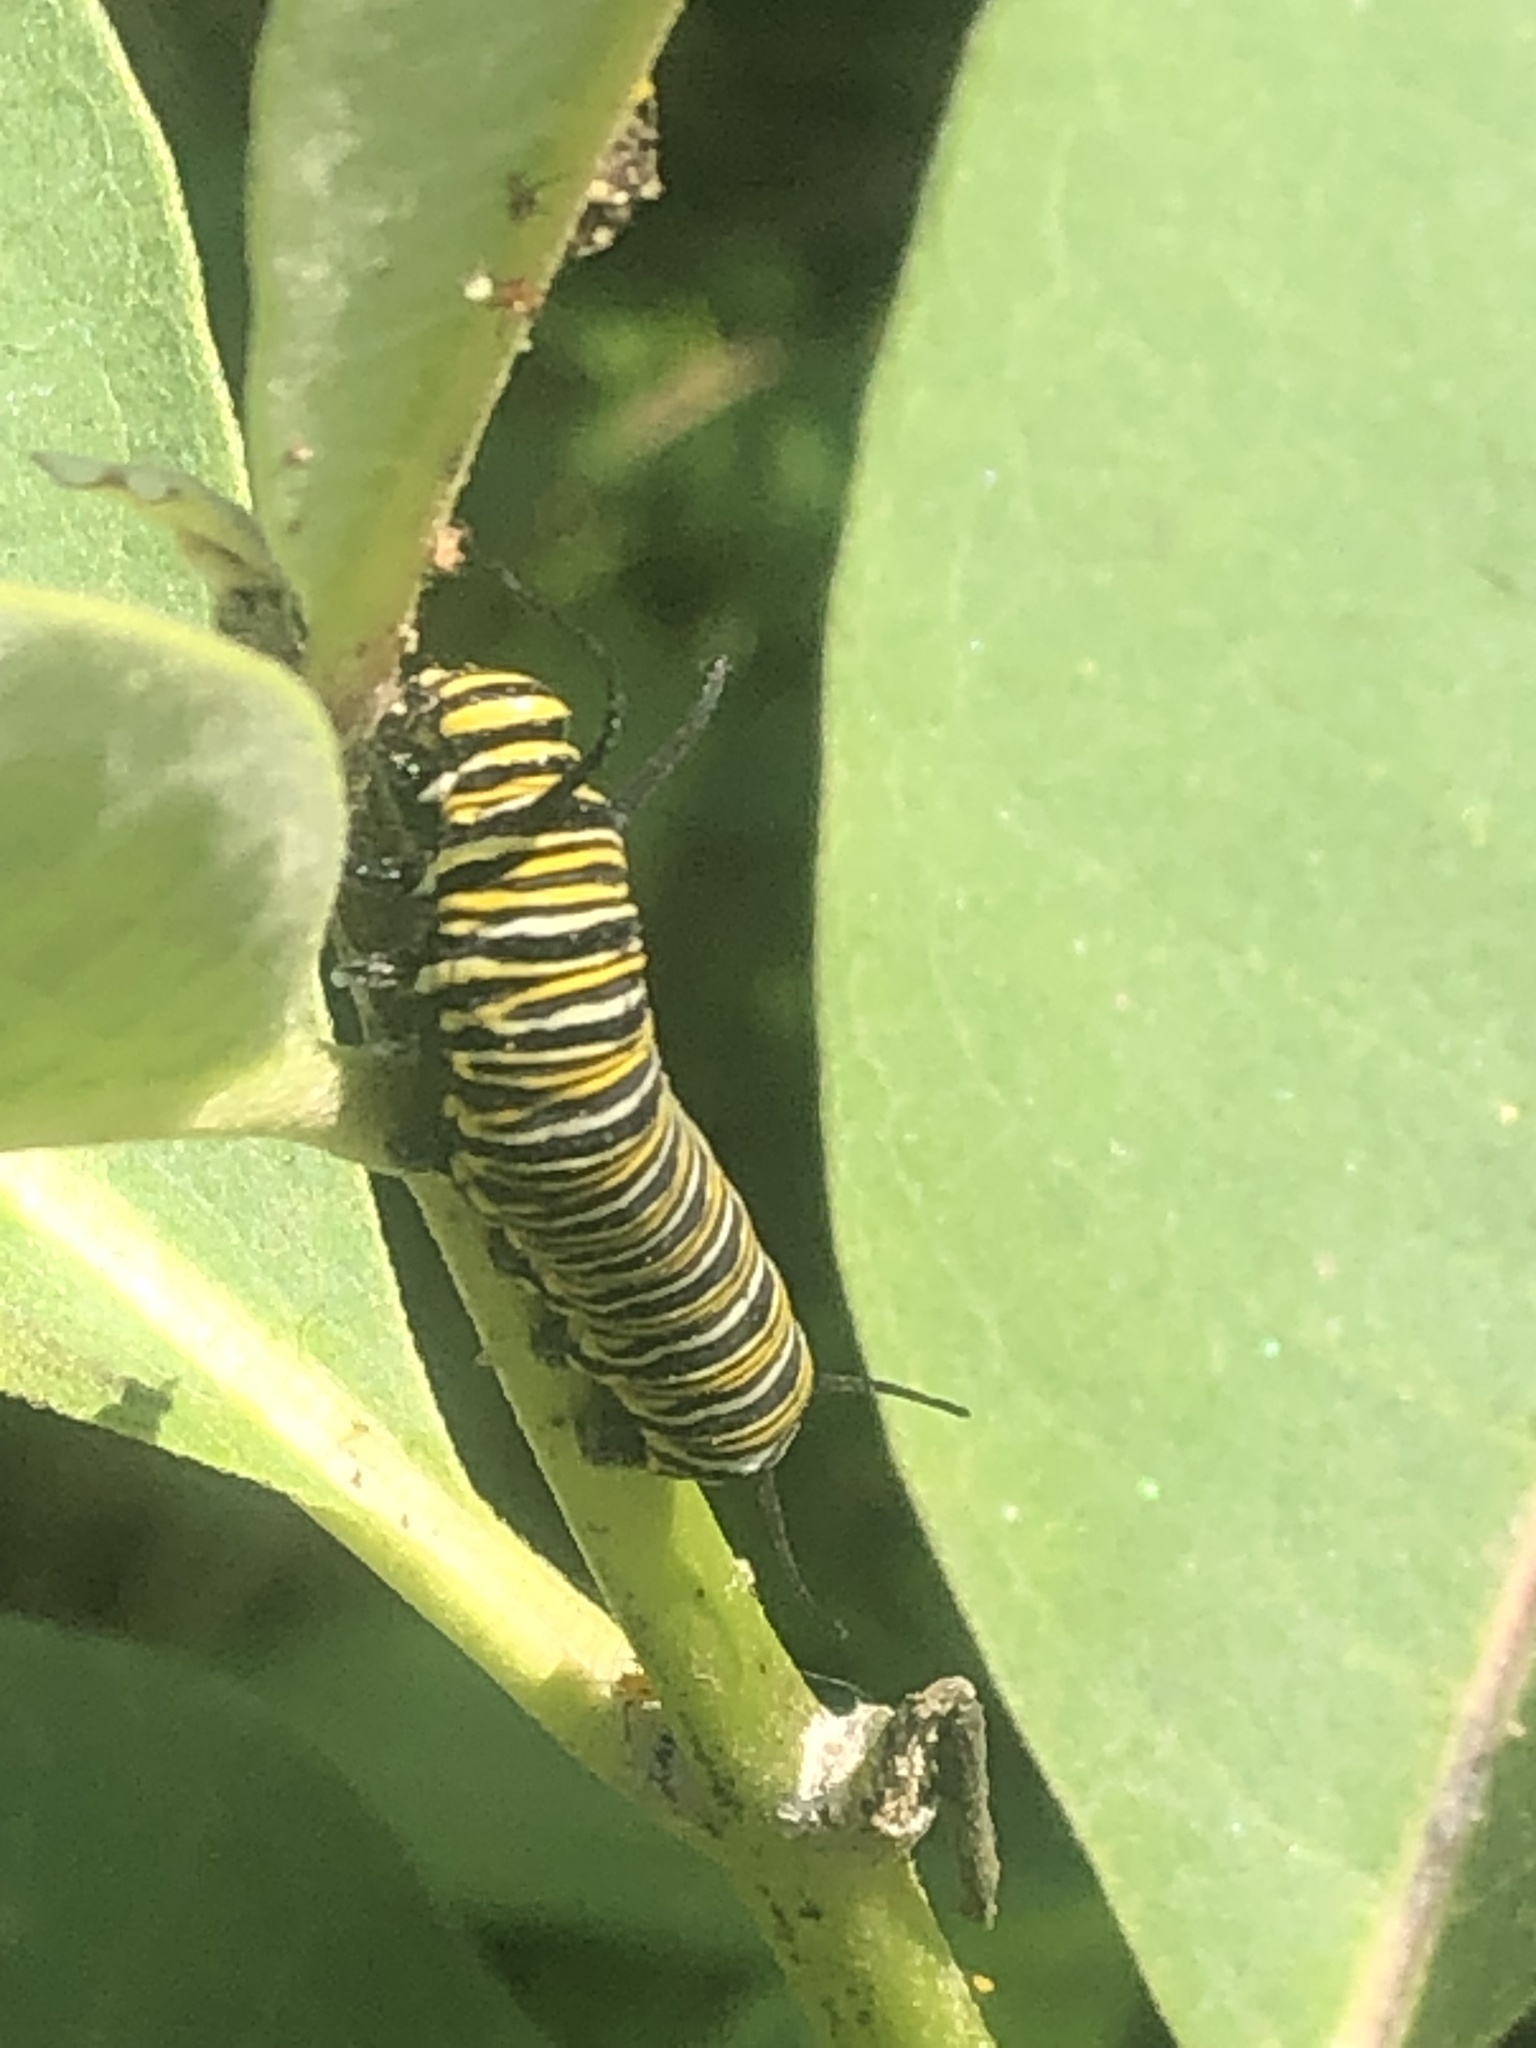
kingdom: Animalia
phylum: Arthropoda
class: Insecta
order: Lepidoptera
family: Nymphalidae
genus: Danaus
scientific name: Danaus plexippus
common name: Monarch
